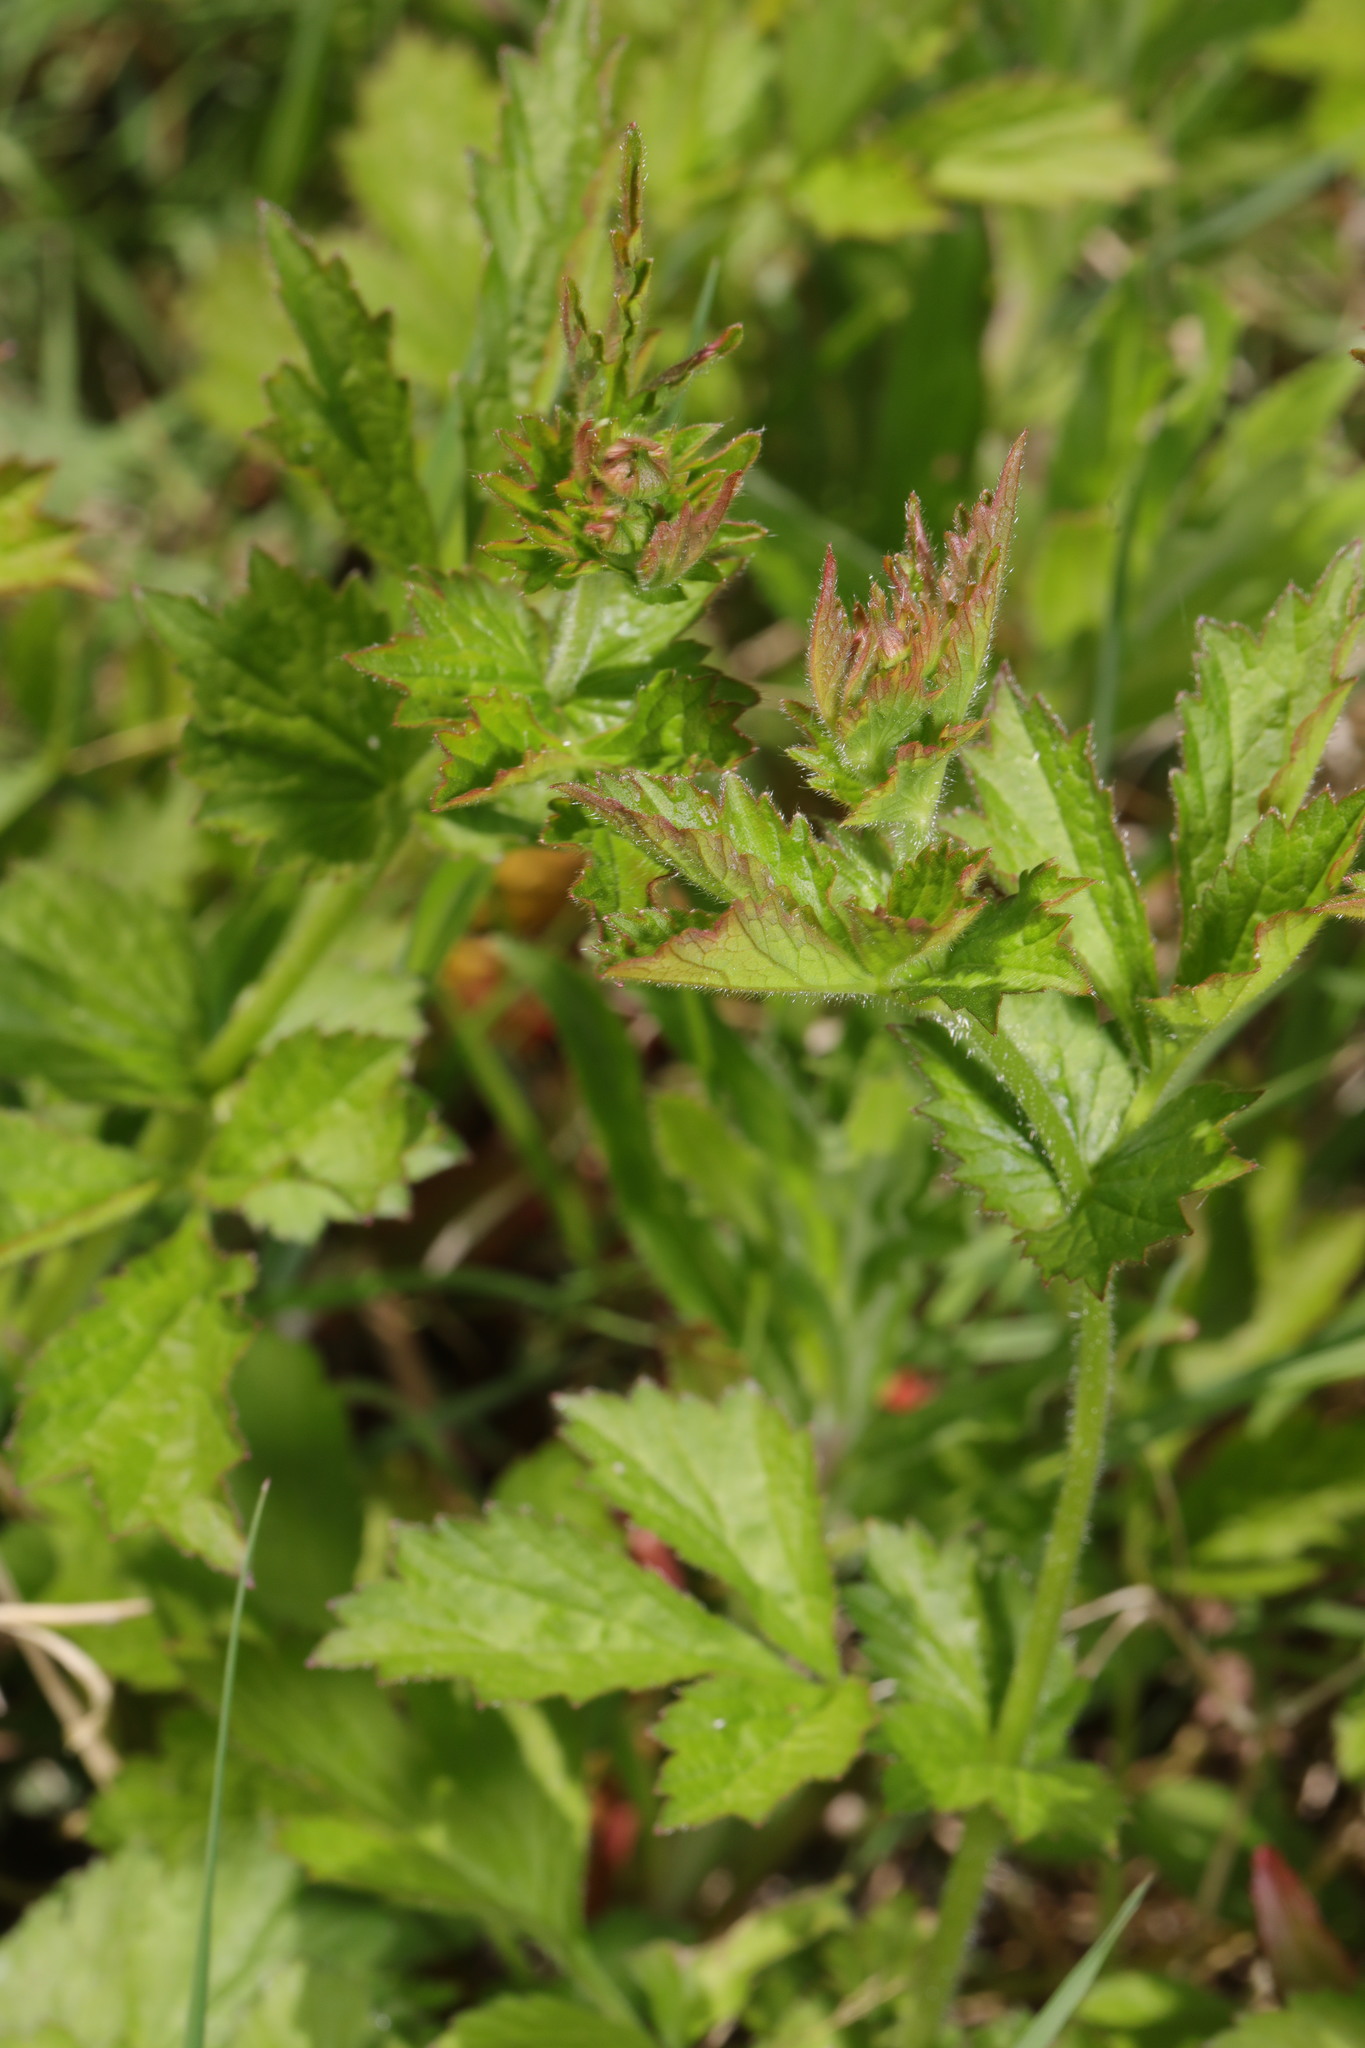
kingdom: Plantae
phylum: Tracheophyta
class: Magnoliopsida
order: Rosales
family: Rosaceae
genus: Geum
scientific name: Geum urbanum
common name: Wood avens
